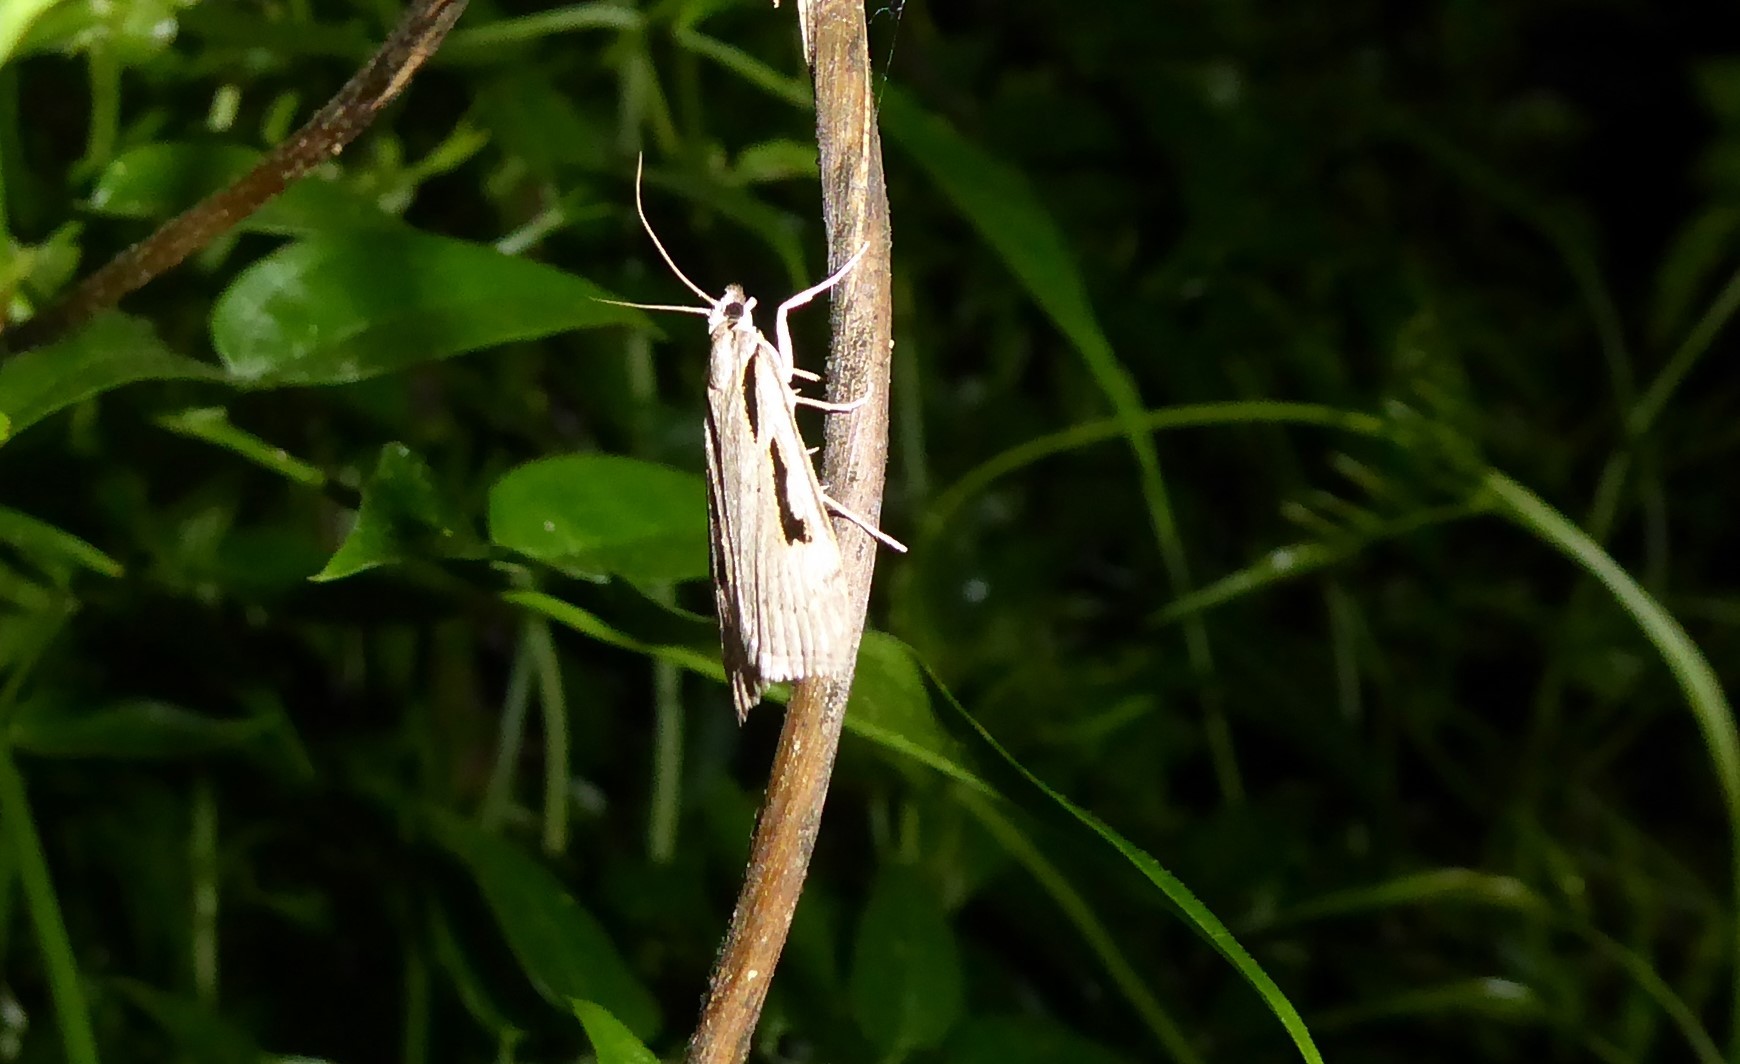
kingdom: Animalia
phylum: Arthropoda
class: Insecta
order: Lepidoptera
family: Crambidae
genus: Scoparia
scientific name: Scoparia rotuellus
